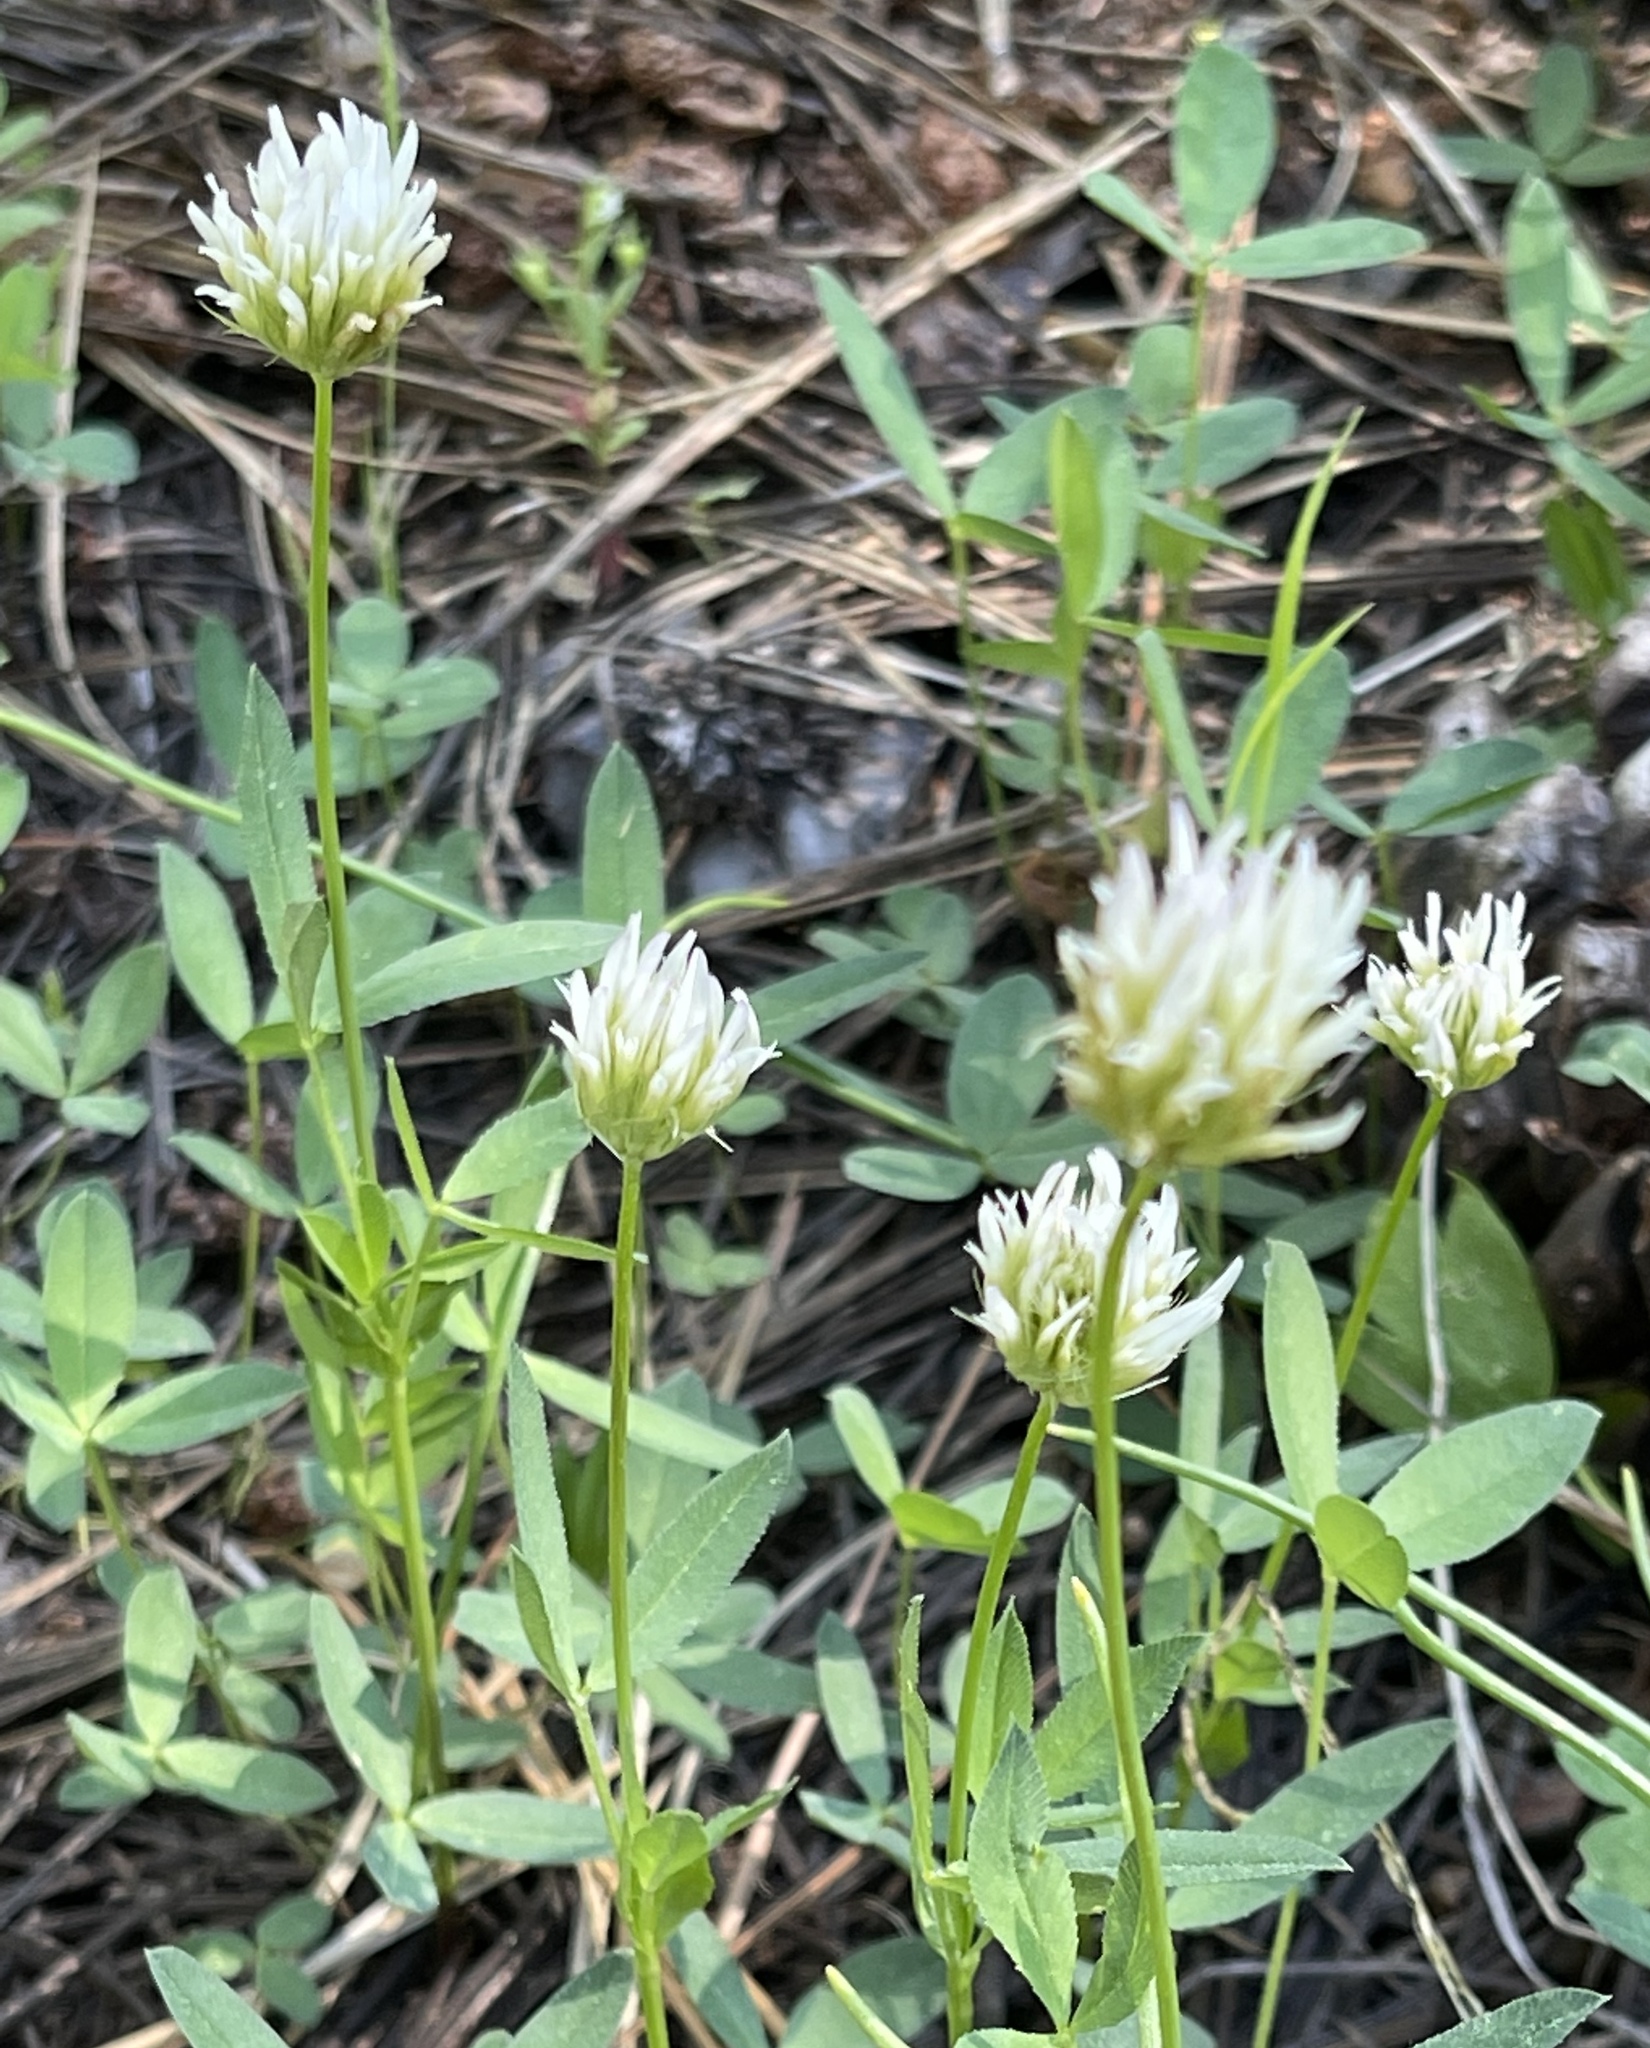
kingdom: Plantae
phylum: Tracheophyta
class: Magnoliopsida
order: Fabales
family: Fabaceae
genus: Trifolium
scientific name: Trifolium longipes
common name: Long-stalk clover
